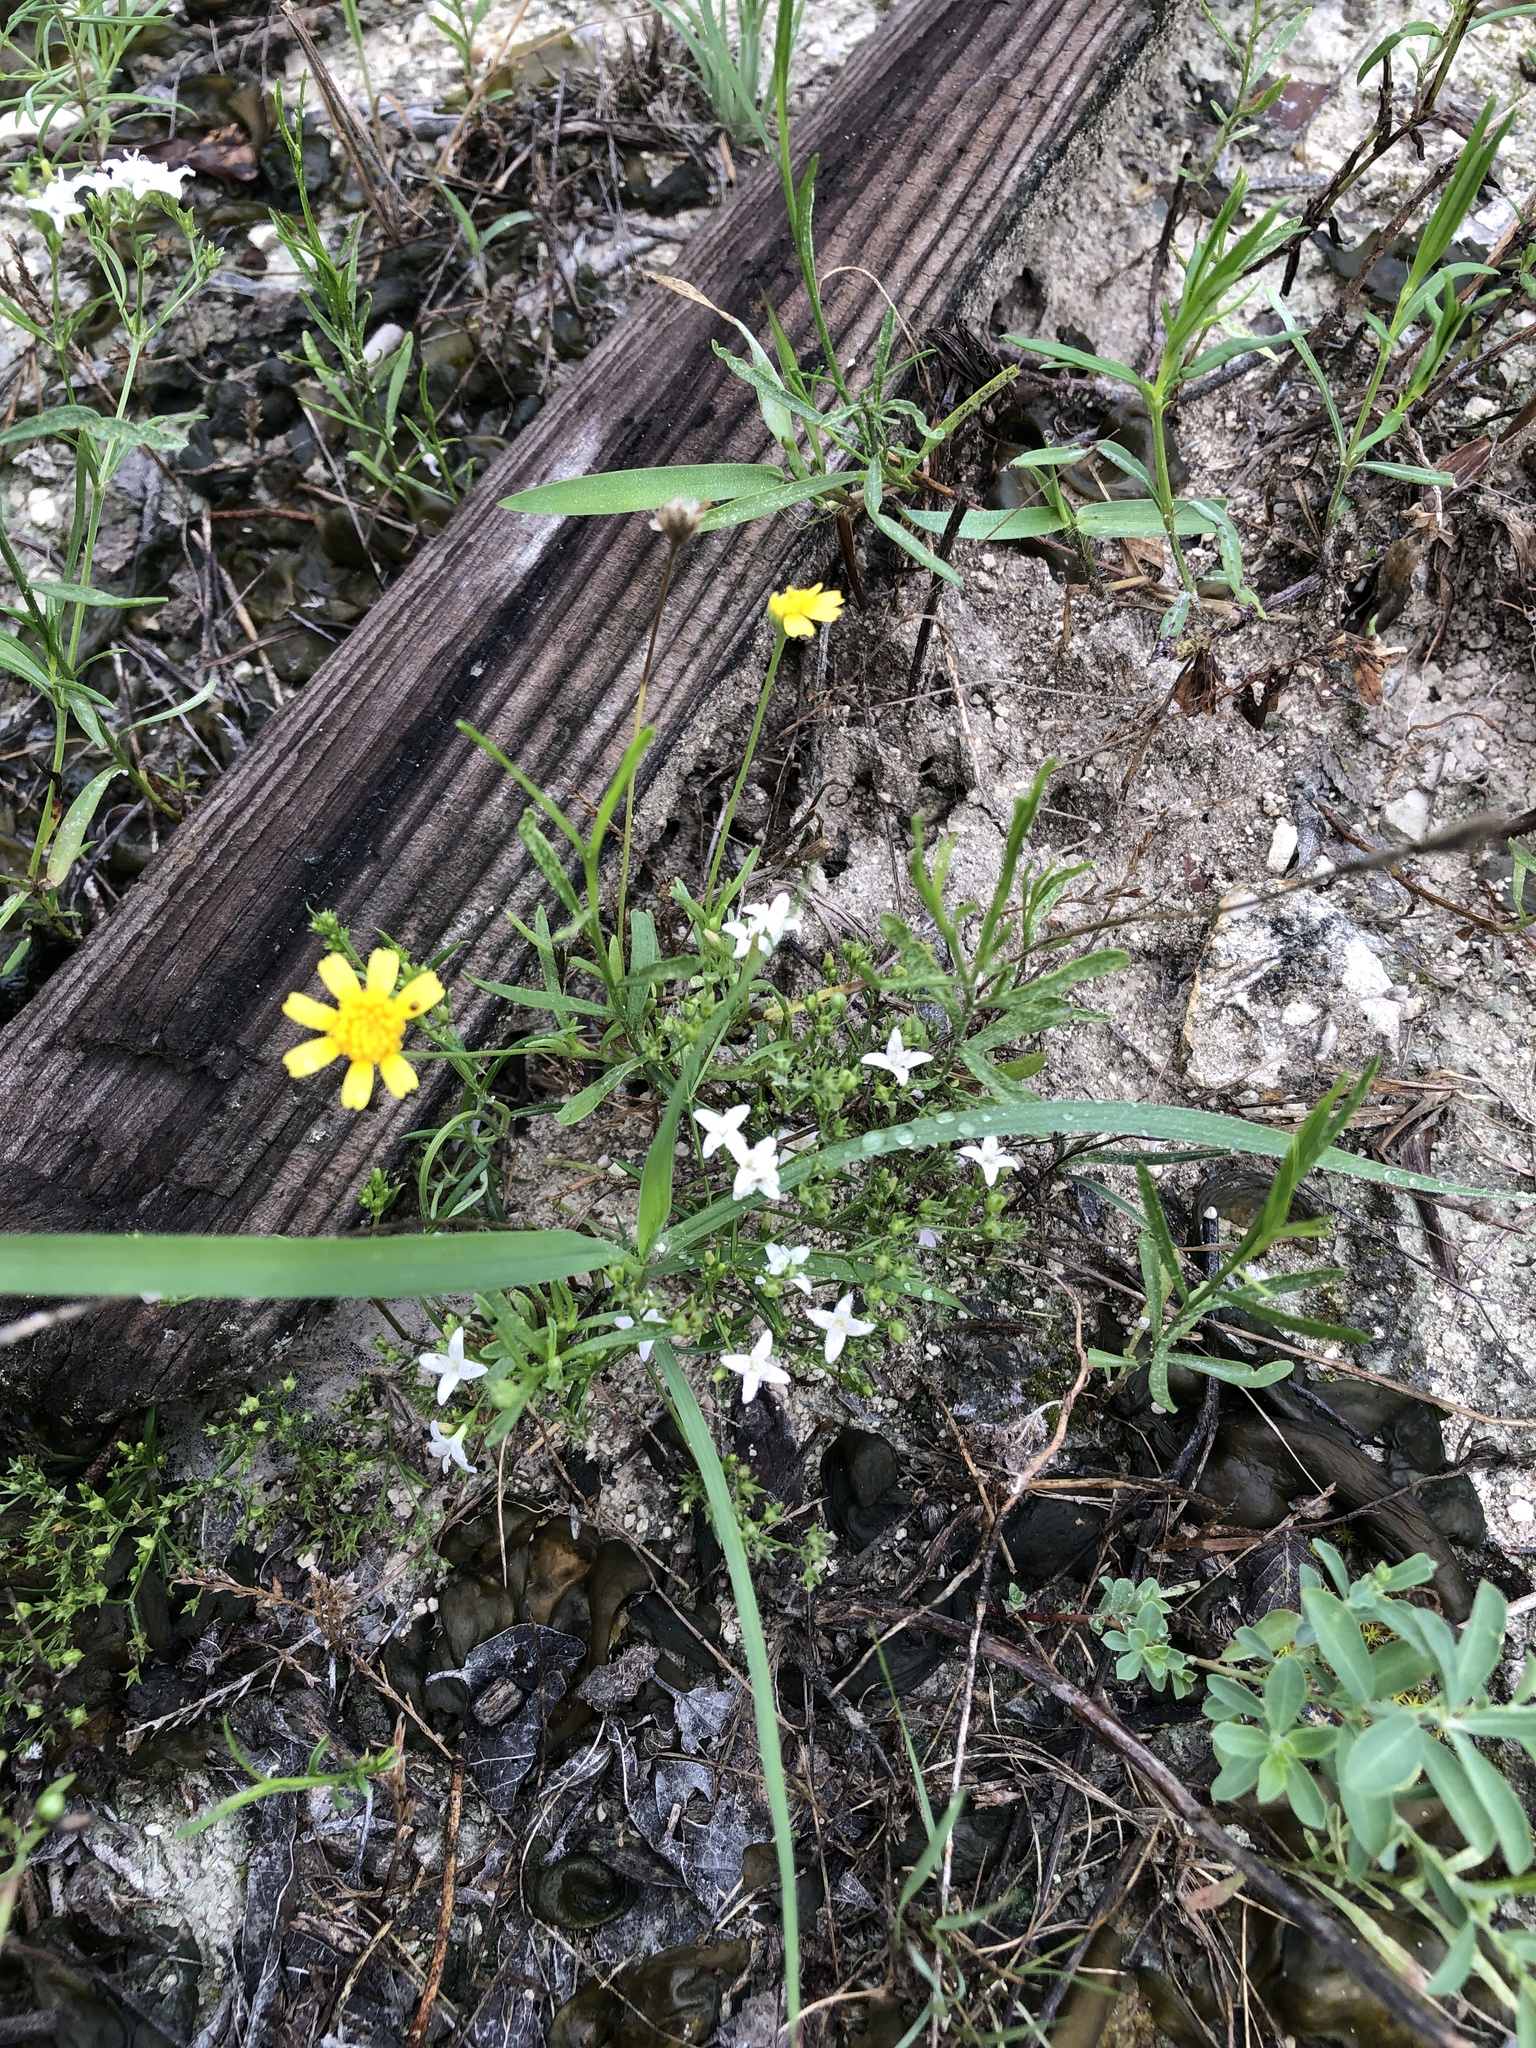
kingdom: Plantae
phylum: Tracheophyta
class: Magnoliopsida
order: Gentianales
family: Rubiaceae
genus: Stenaria
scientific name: Stenaria nigricans
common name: Diamondflowers
